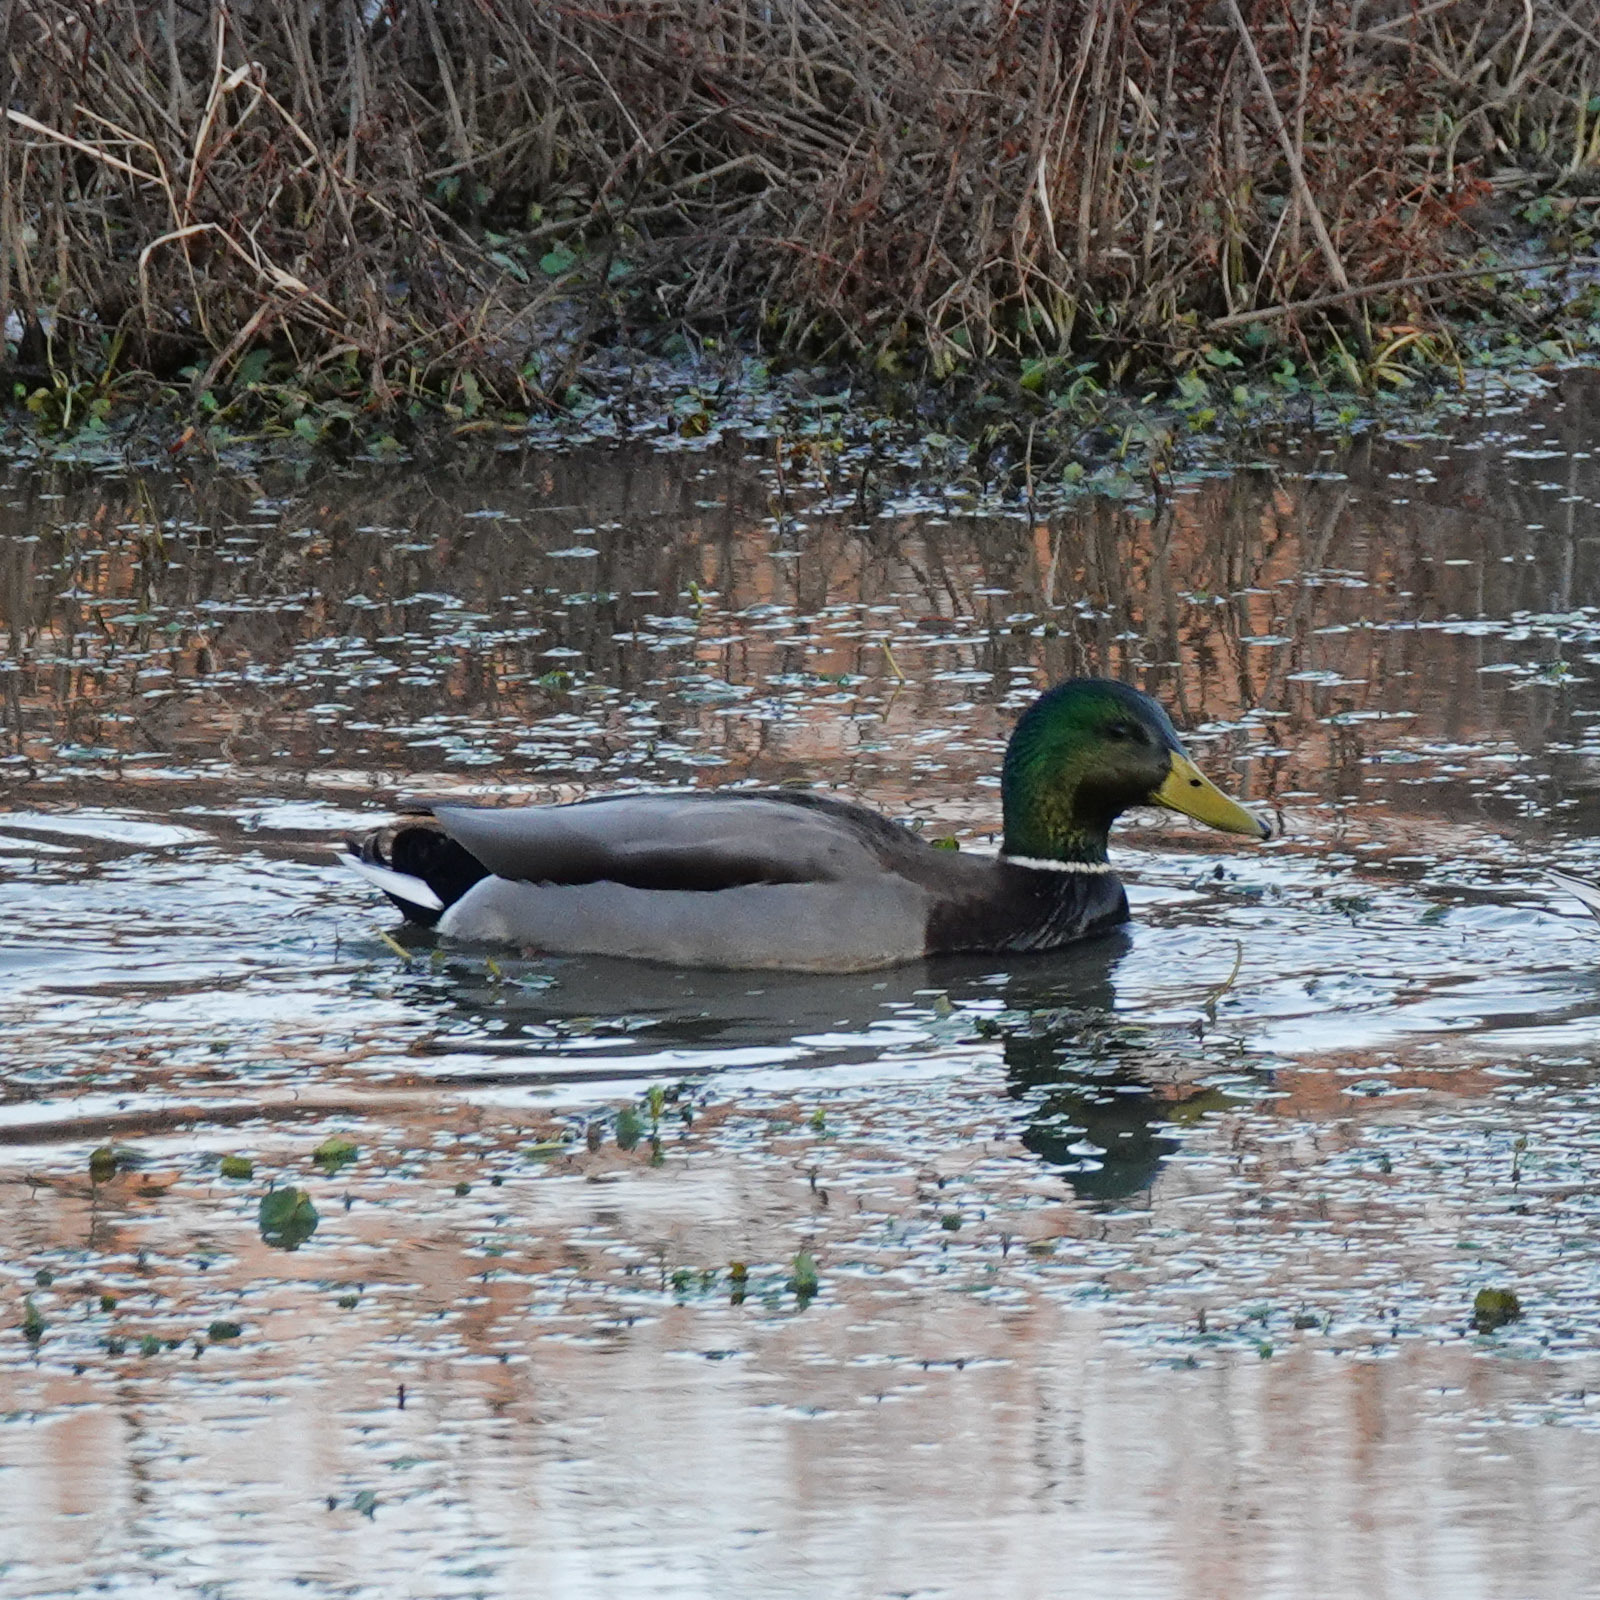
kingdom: Animalia
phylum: Chordata
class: Aves
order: Anseriformes
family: Anatidae
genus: Anas
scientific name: Anas platyrhynchos
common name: Mallard
